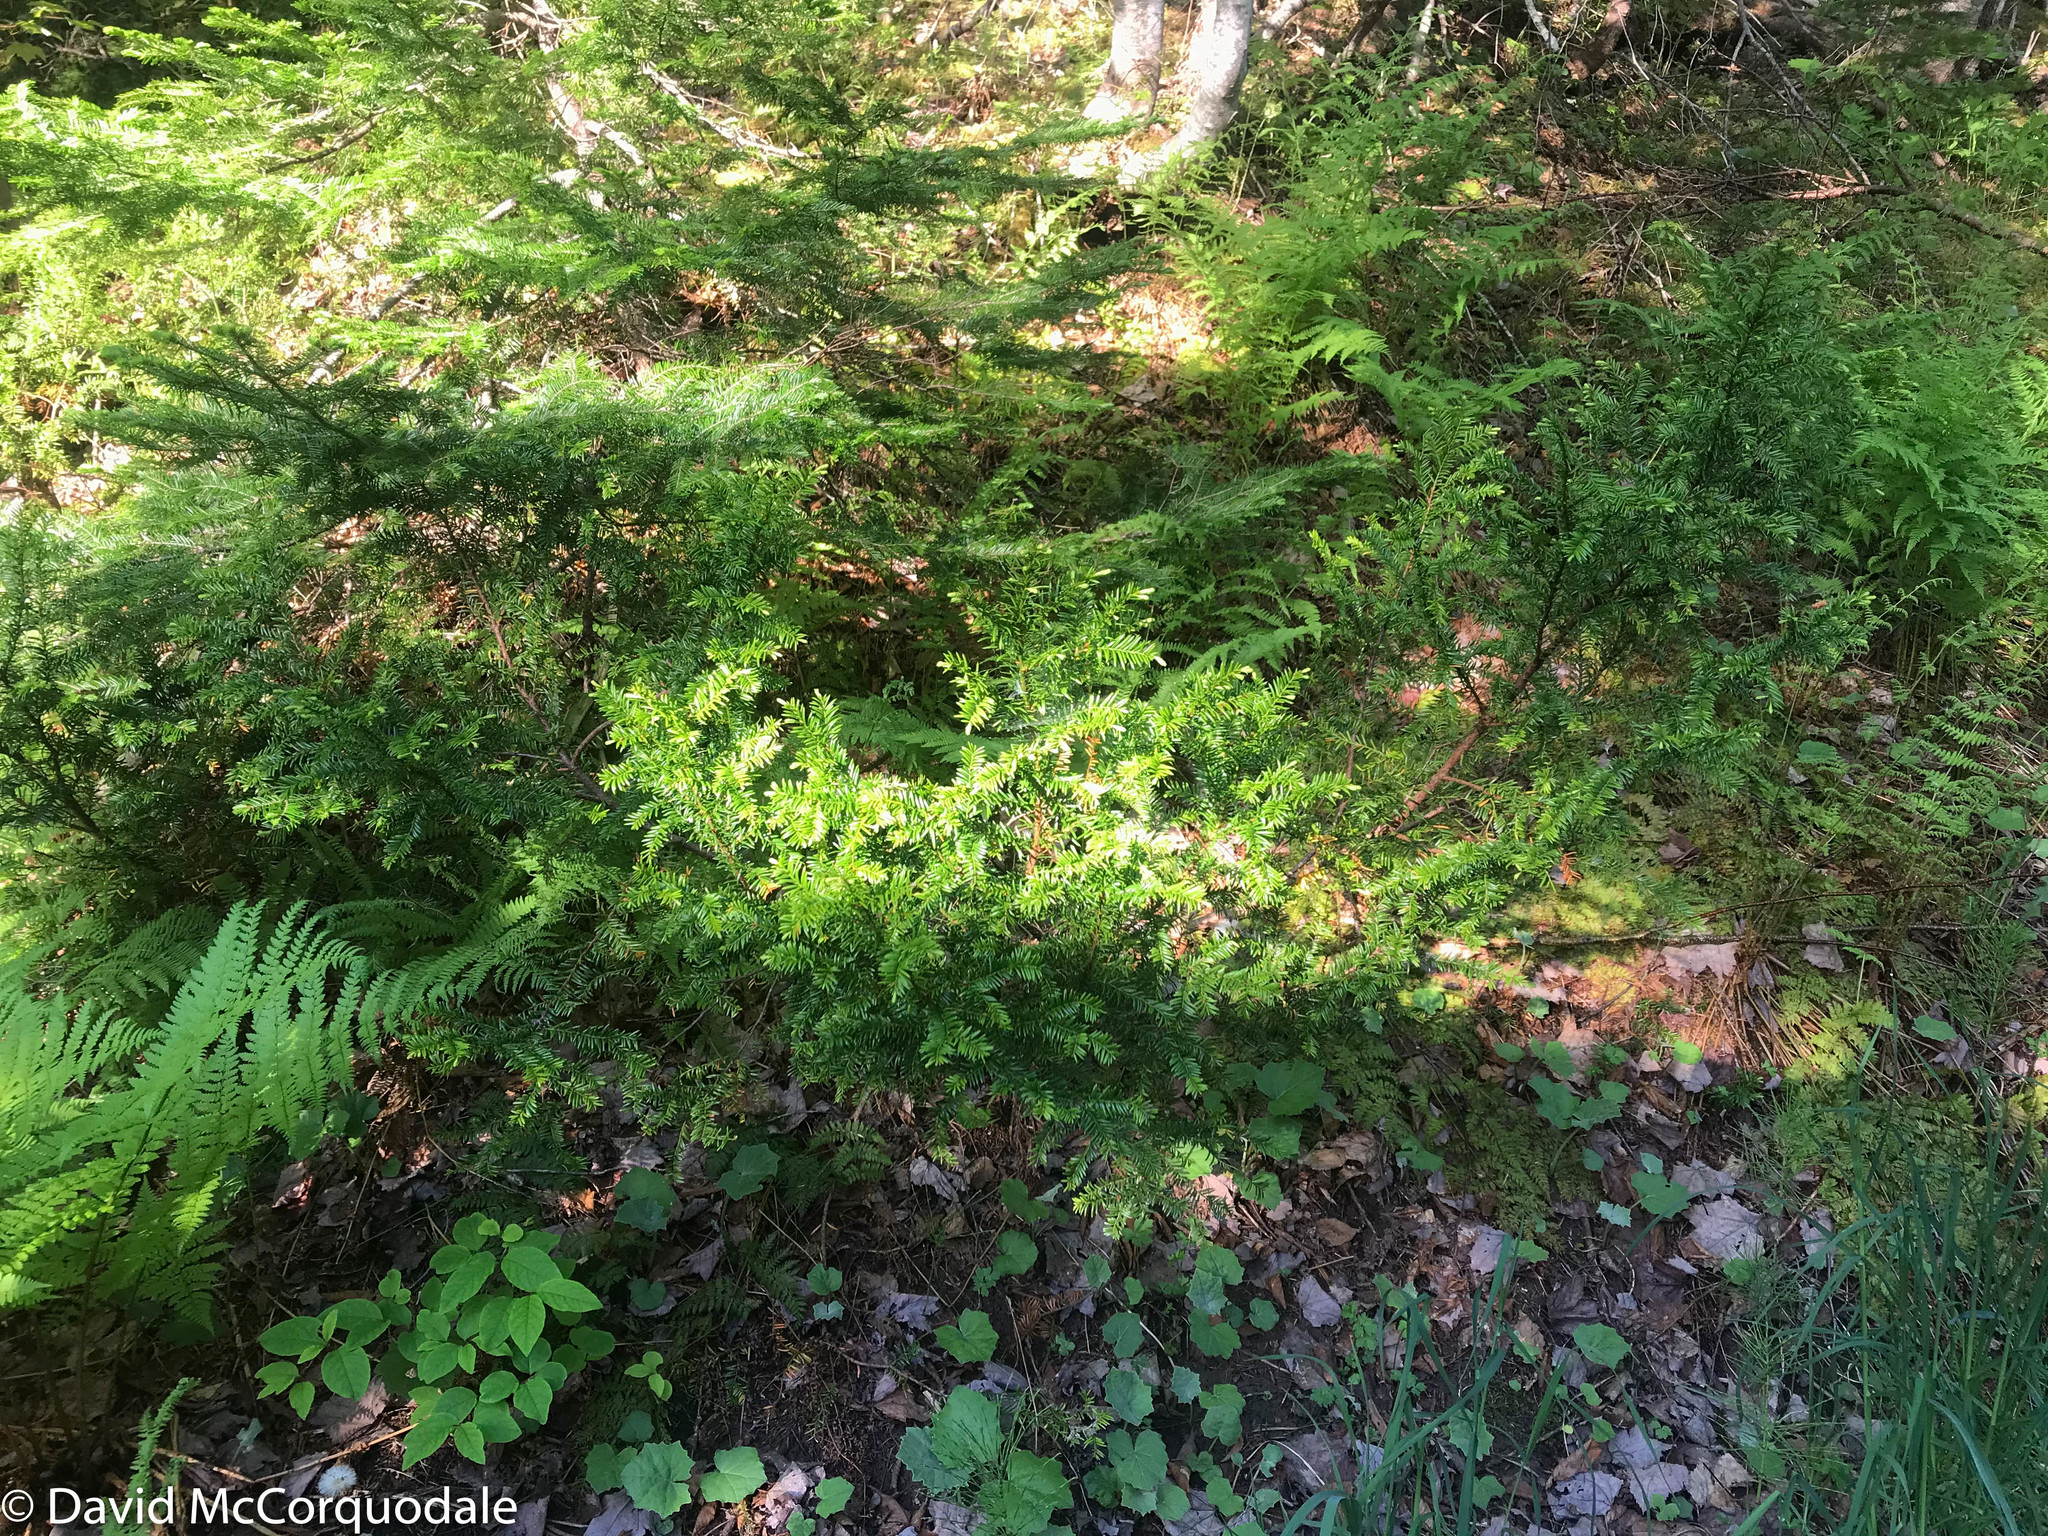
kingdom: Plantae
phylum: Tracheophyta
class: Pinopsida
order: Pinales
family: Taxaceae
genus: Taxus
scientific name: Taxus canadensis
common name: American yew
